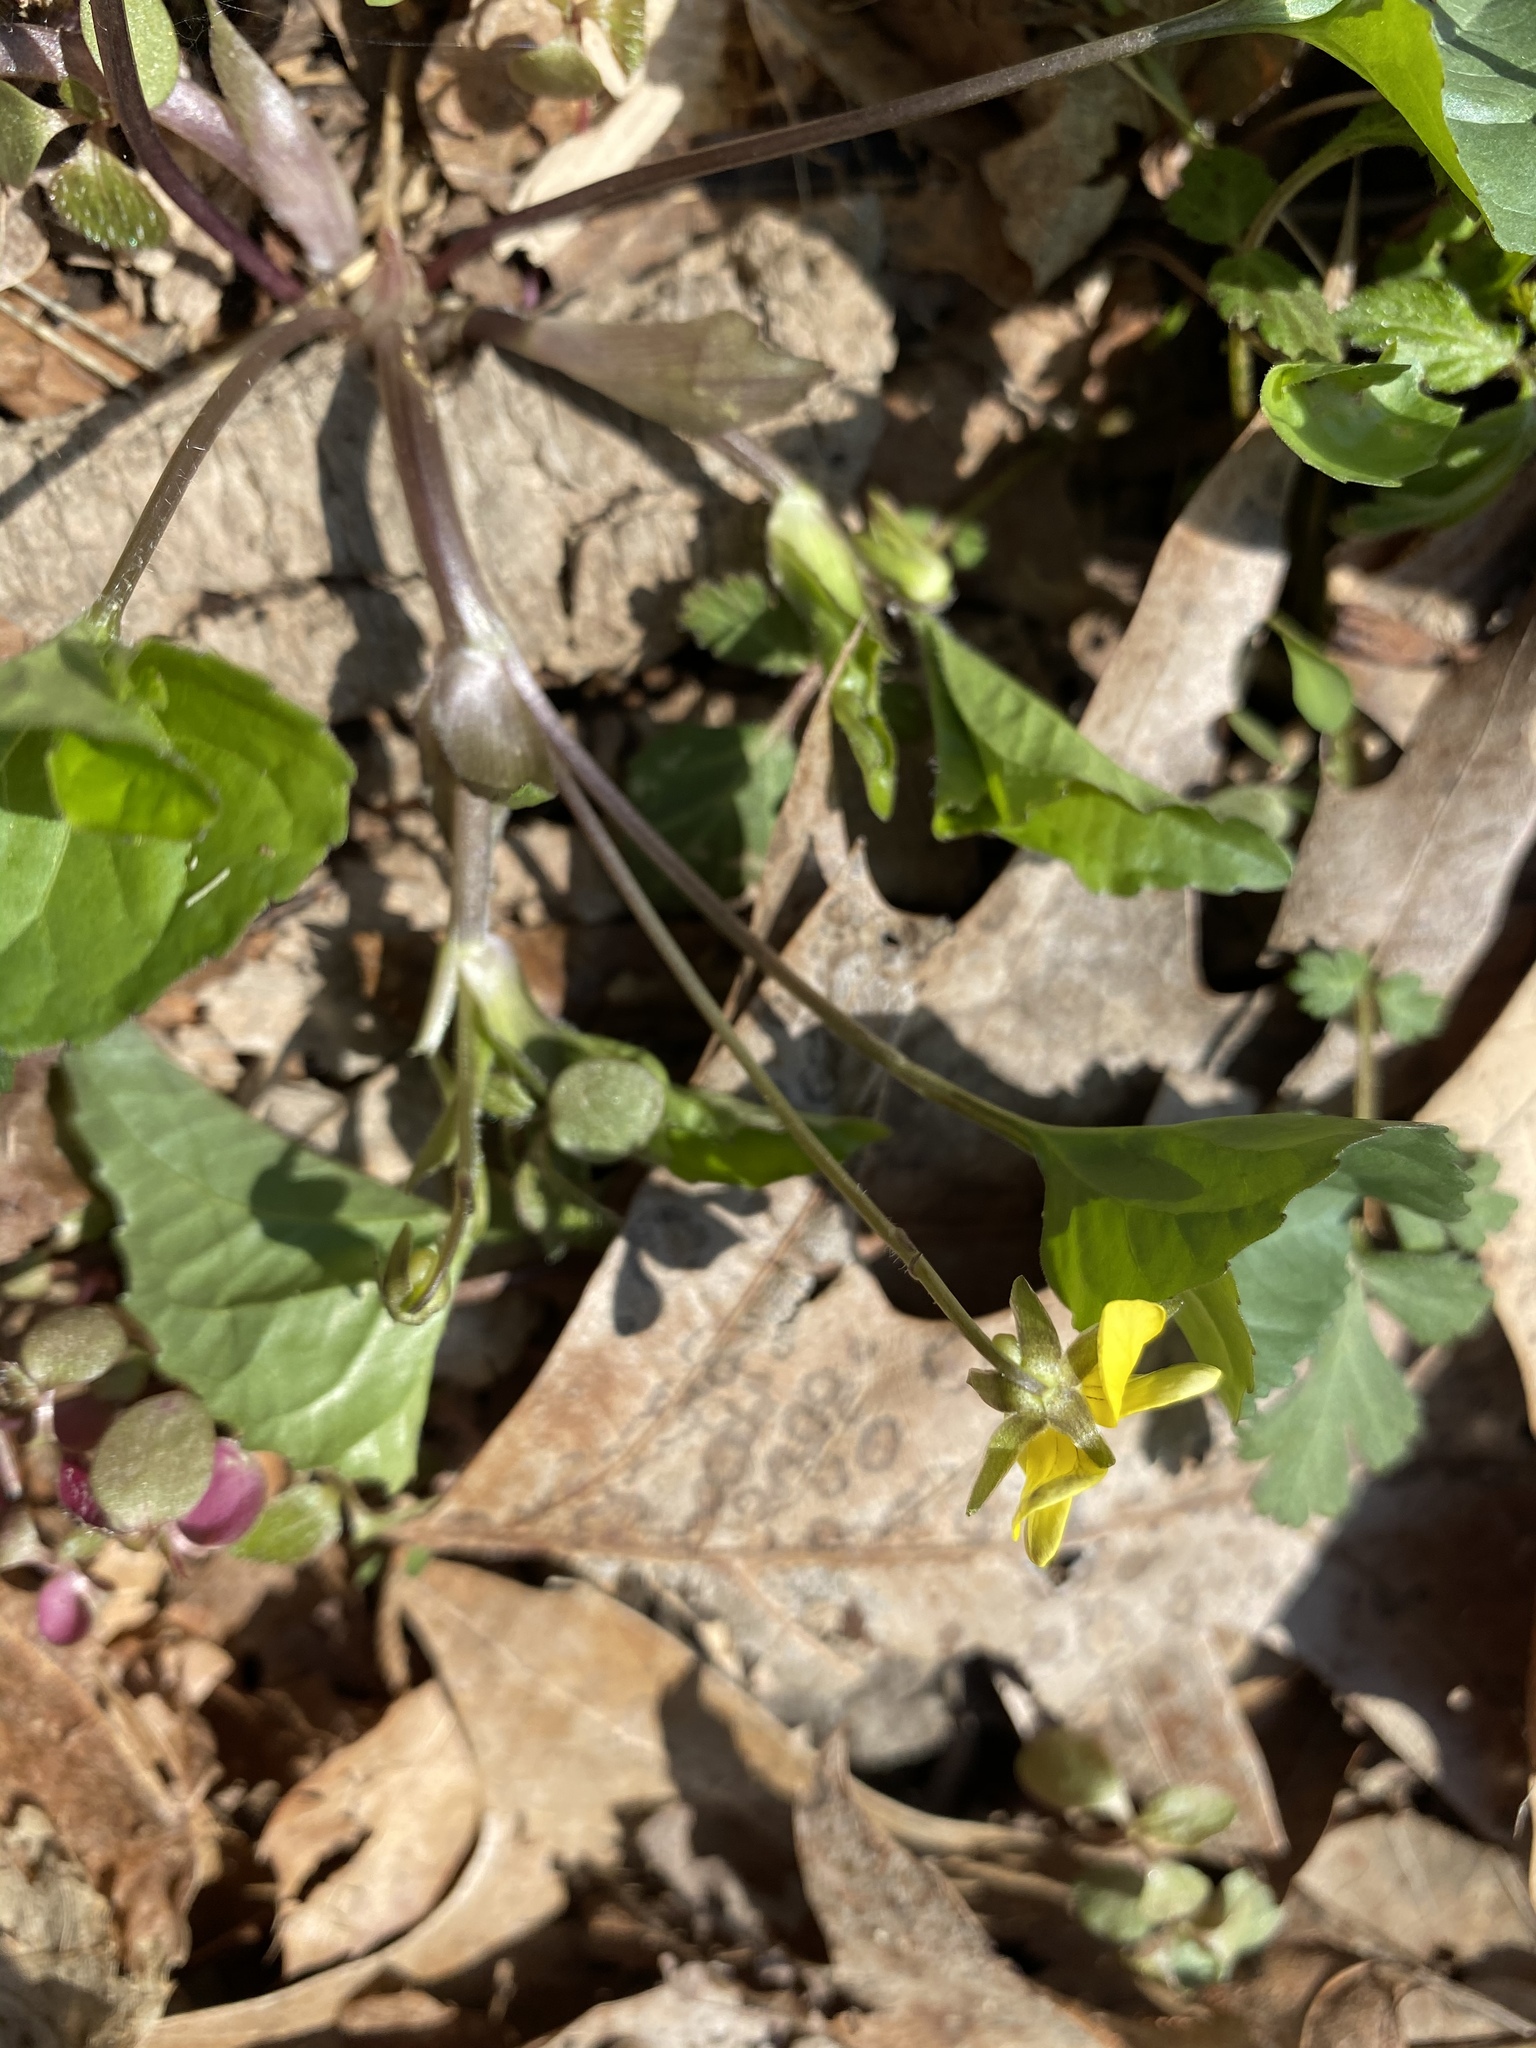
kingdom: Plantae
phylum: Tracheophyta
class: Magnoliopsida
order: Malpighiales
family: Violaceae
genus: Viola
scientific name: Viola eriocarpa
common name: Smooth yellow violet
